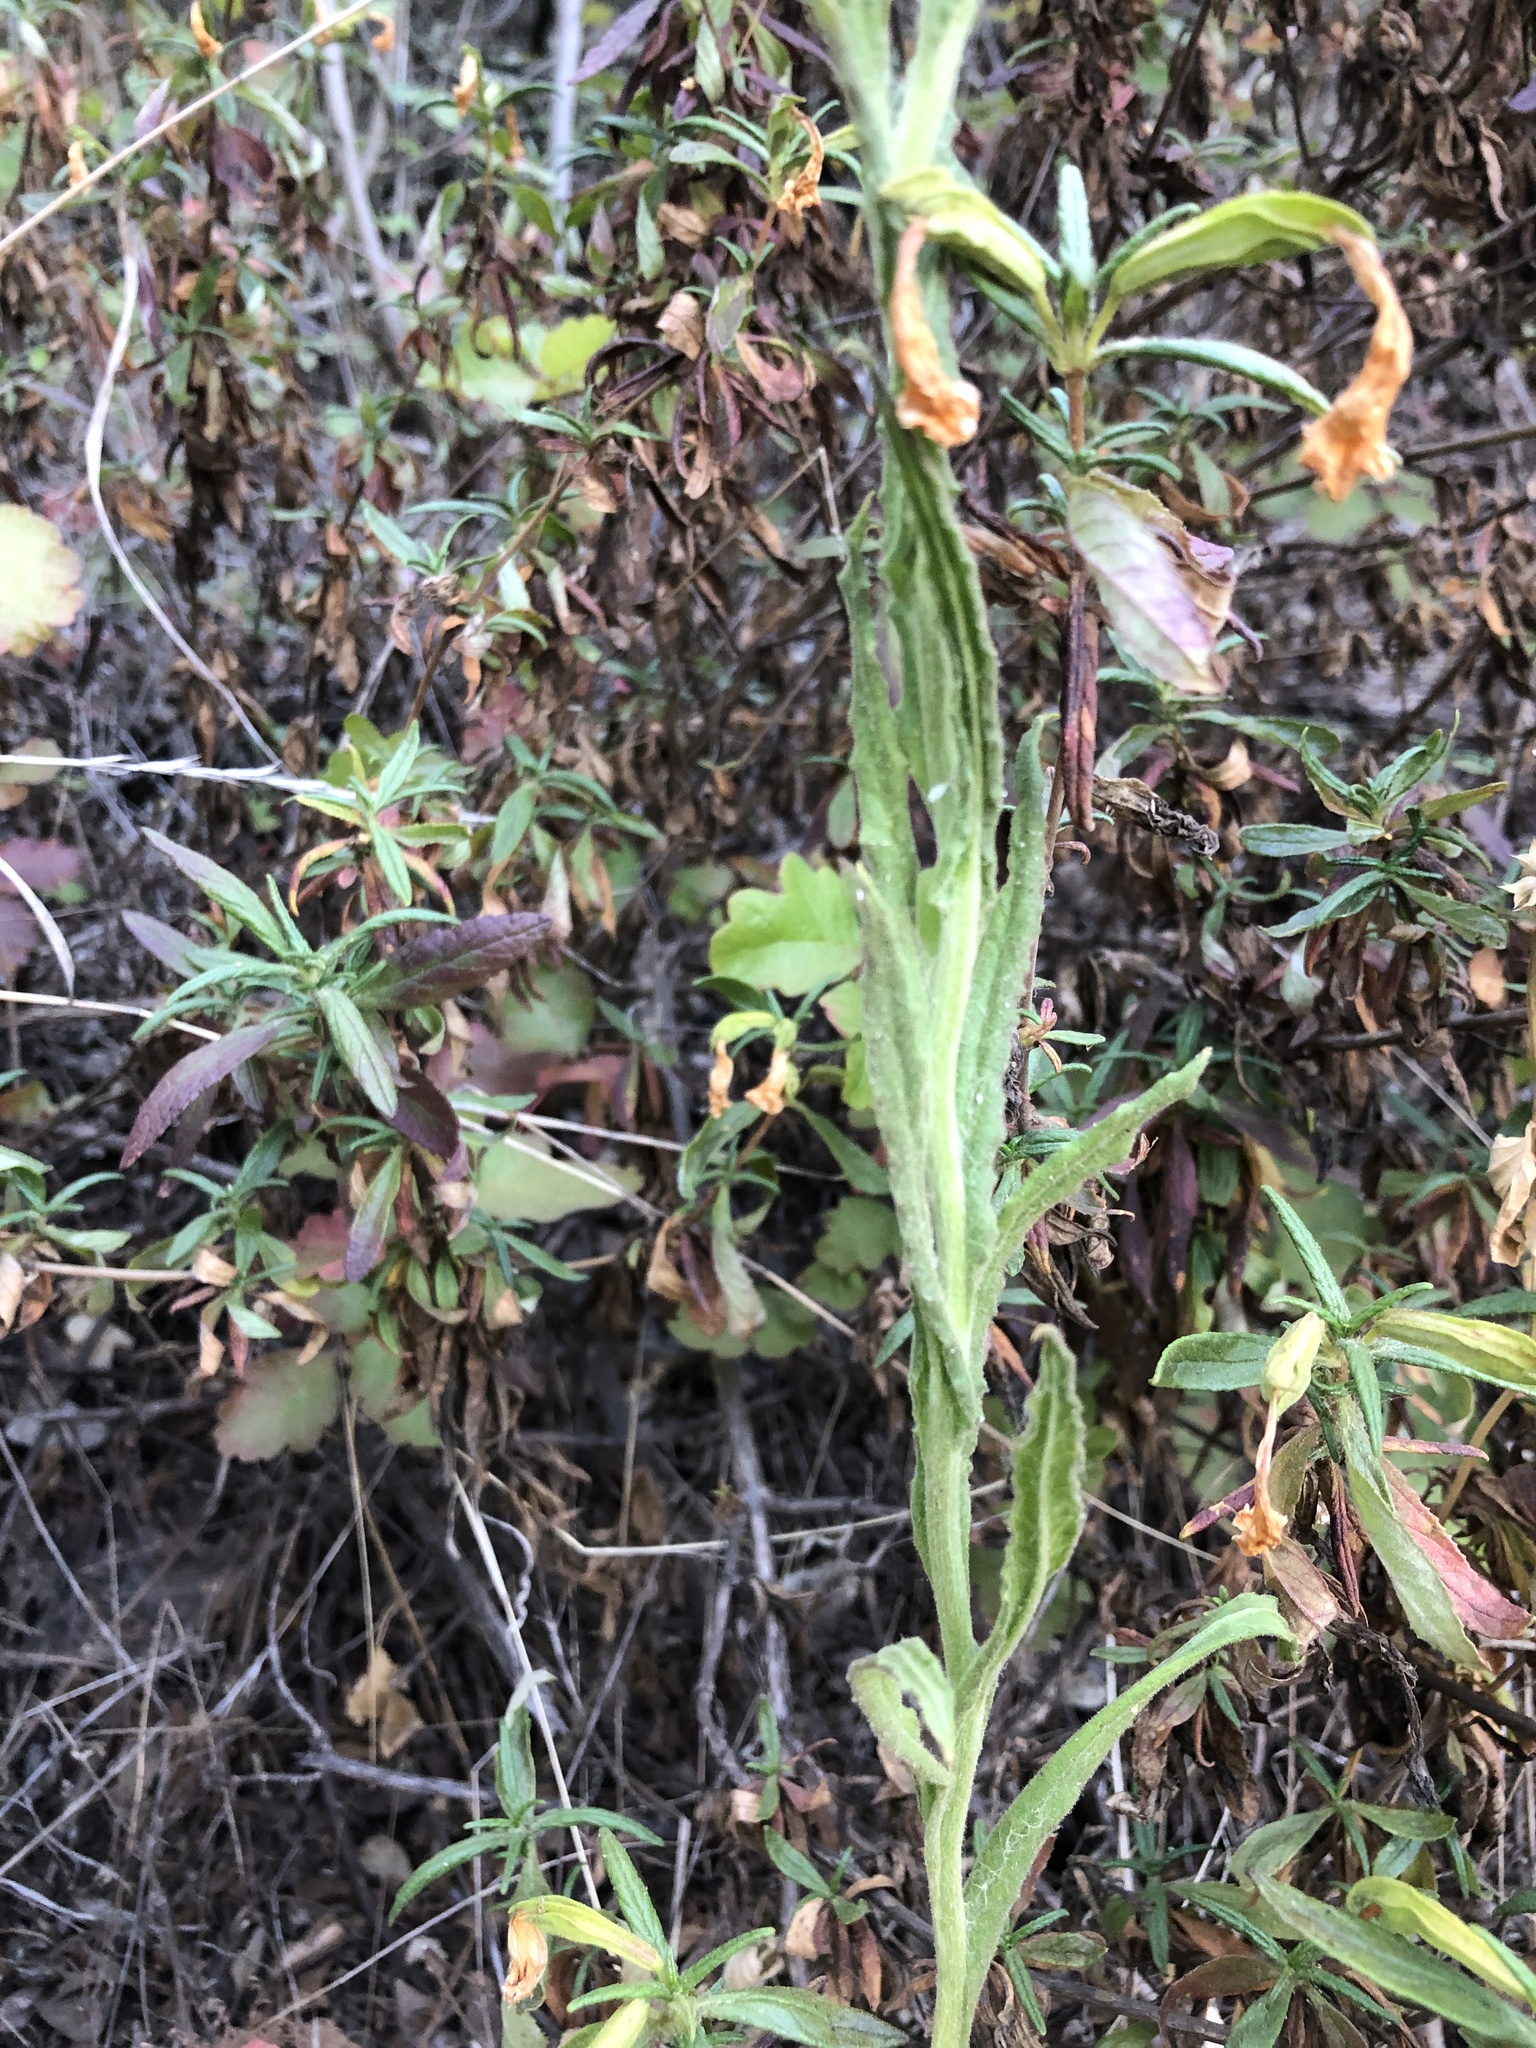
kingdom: Plantae
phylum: Tracheophyta
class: Magnoliopsida
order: Asterales
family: Asteraceae
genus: Pseudognaphalium
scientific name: Pseudognaphalium californicum
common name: California rabbit-tobacco
